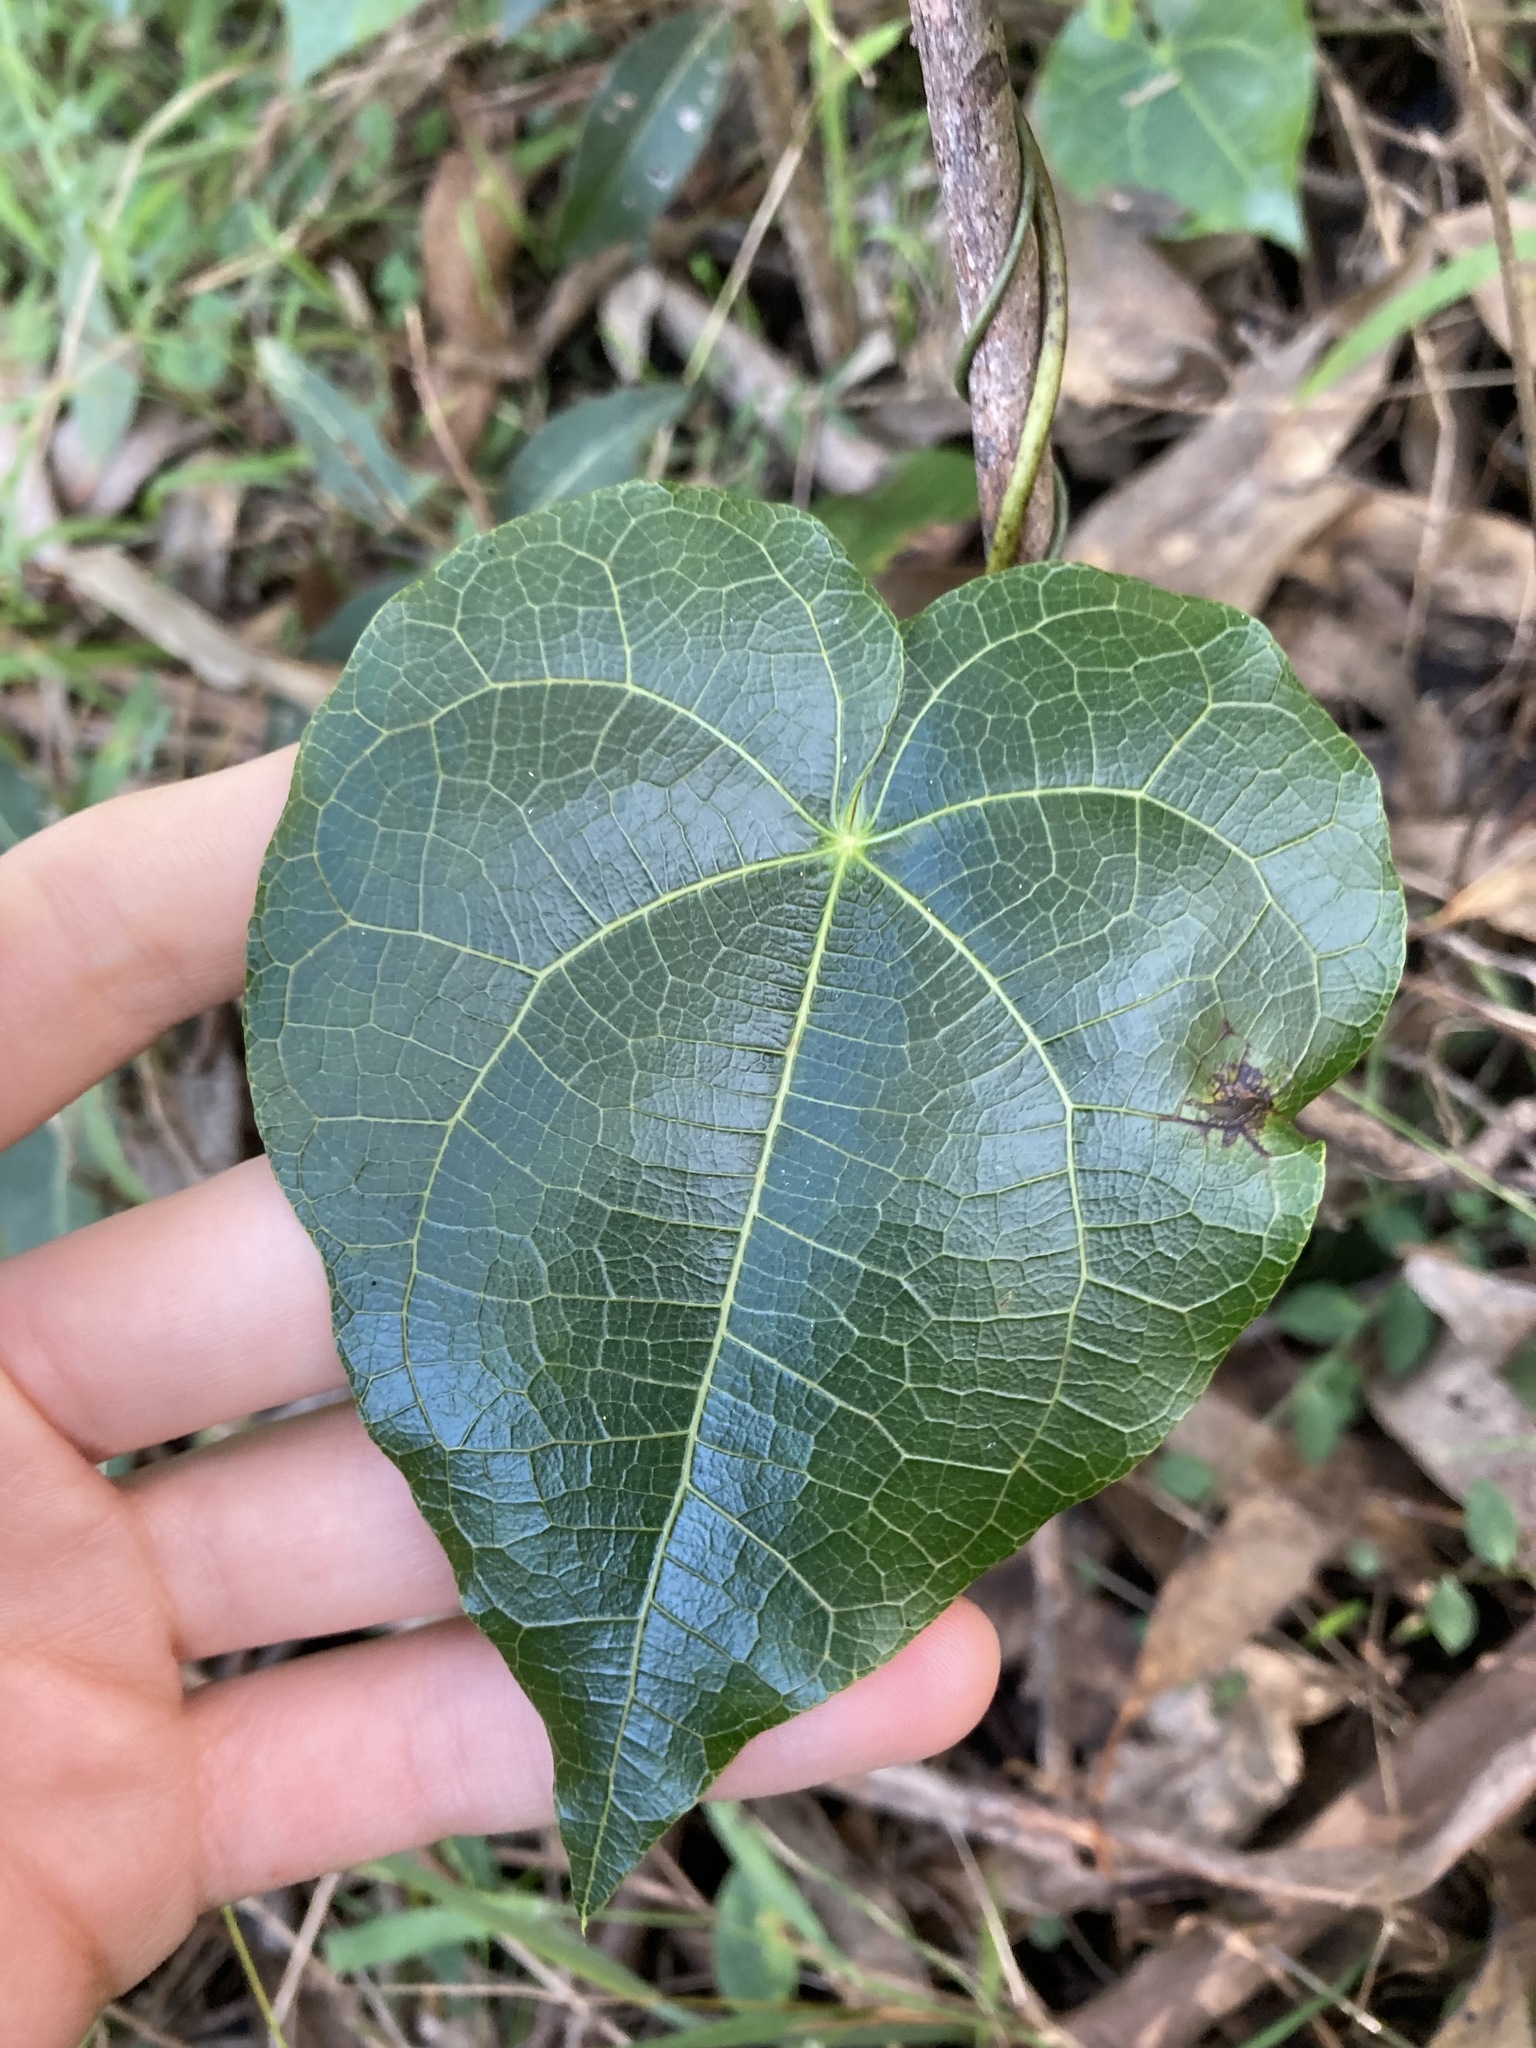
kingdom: Plantae
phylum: Tracheophyta
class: Magnoliopsida
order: Ranunculales
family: Menispermaceae
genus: Sarcopetalum
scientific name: Sarcopetalum harveyanum
